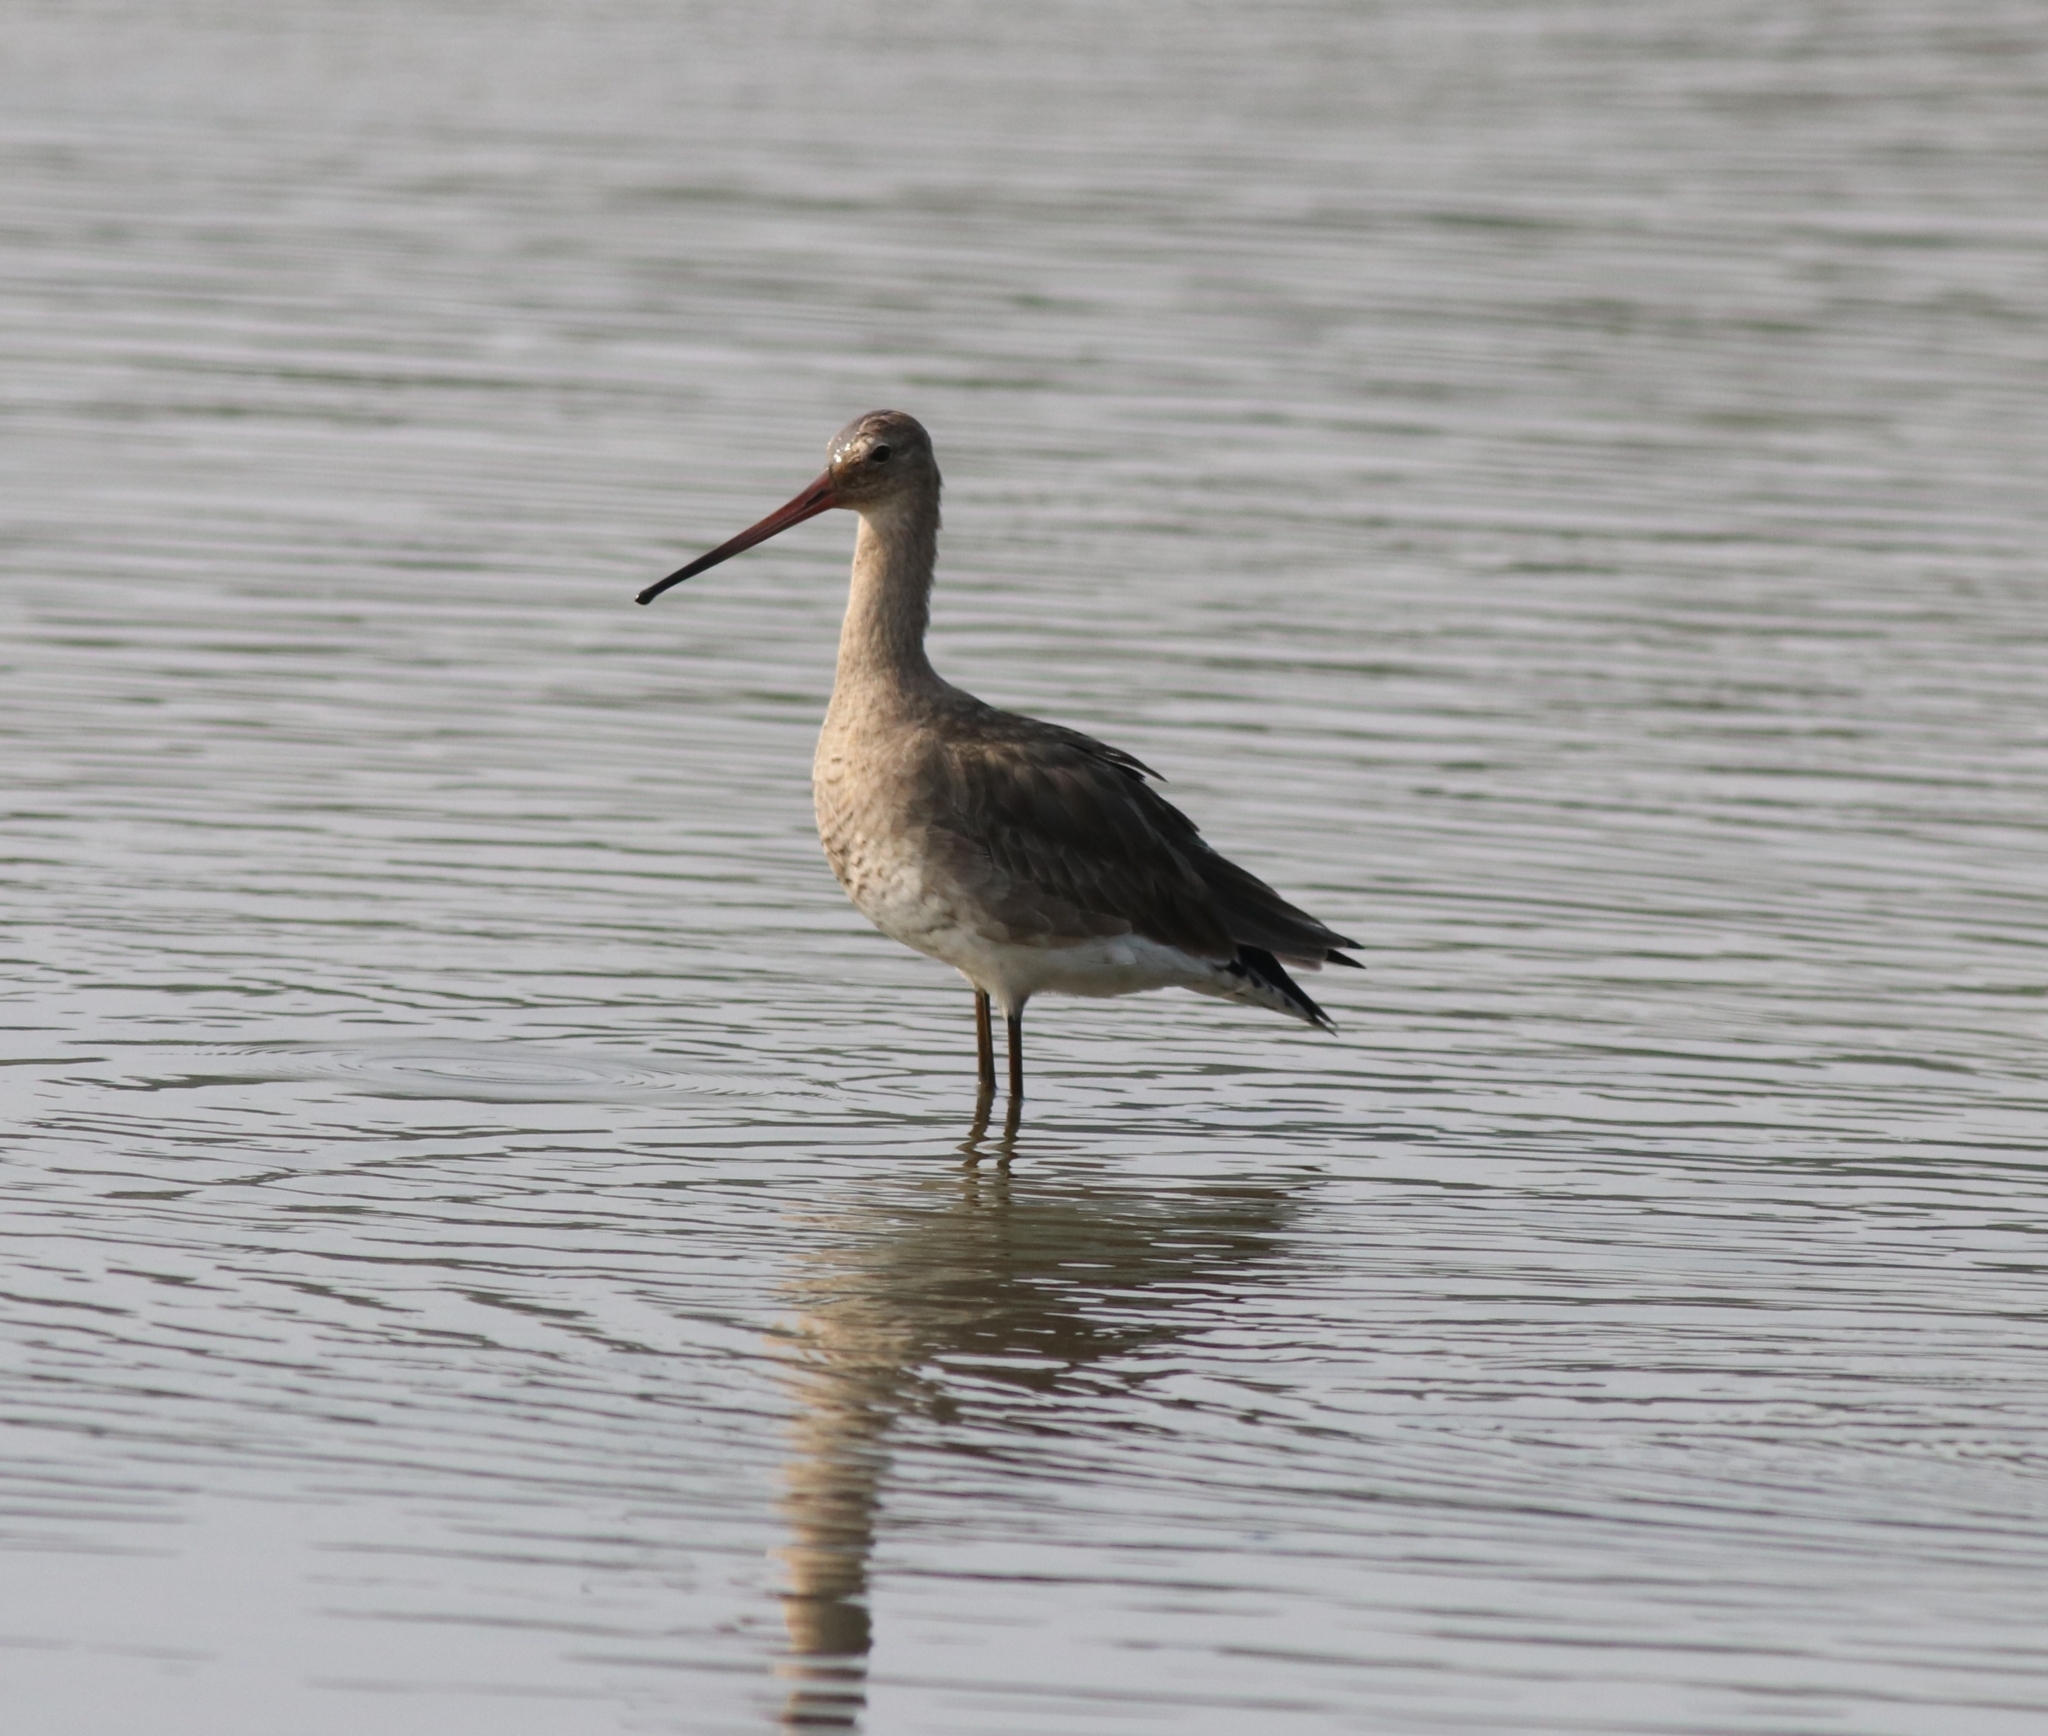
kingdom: Animalia
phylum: Chordata
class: Aves
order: Charadriiformes
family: Scolopacidae
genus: Limosa
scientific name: Limosa limosa
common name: Black-tailed godwit
